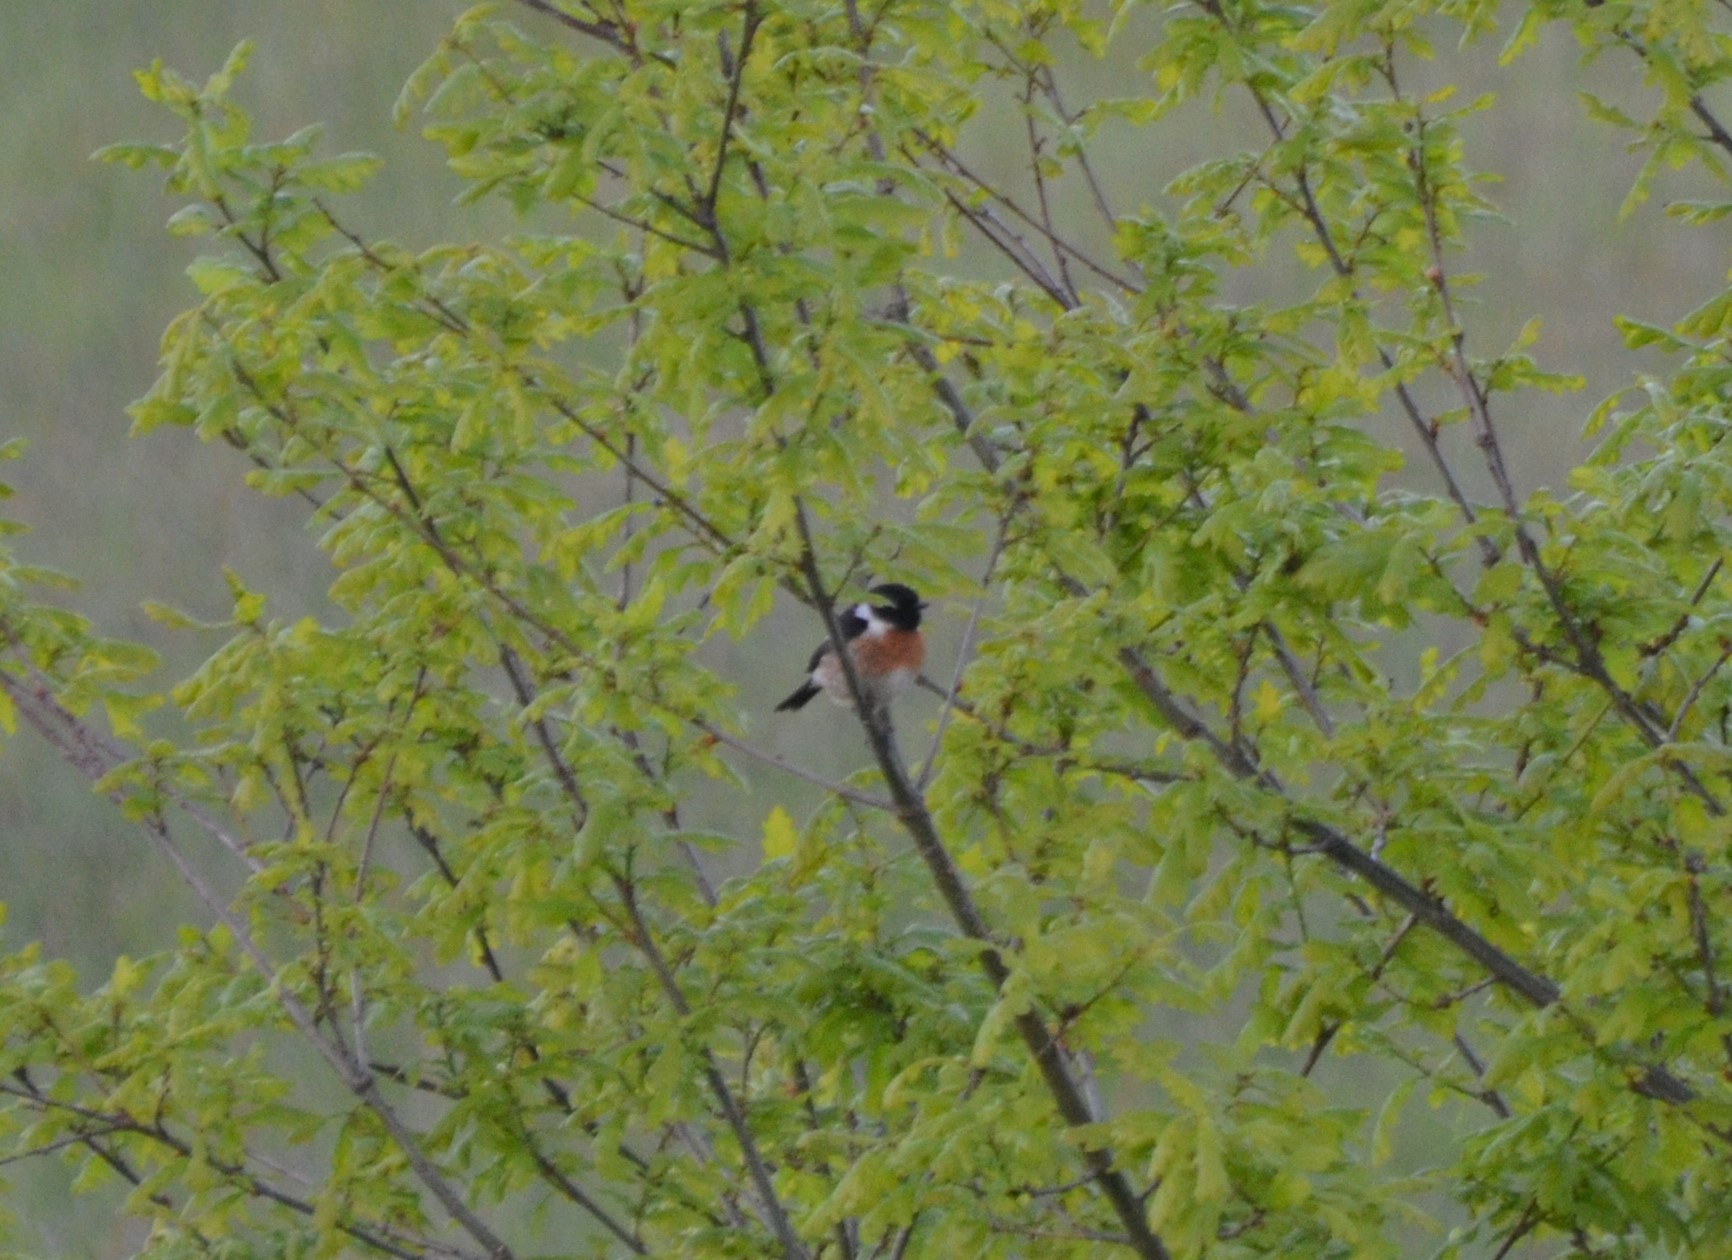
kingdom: Animalia
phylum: Chordata
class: Aves
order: Passeriformes
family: Muscicapidae
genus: Saxicola
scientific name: Saxicola rubicola
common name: European stonechat
